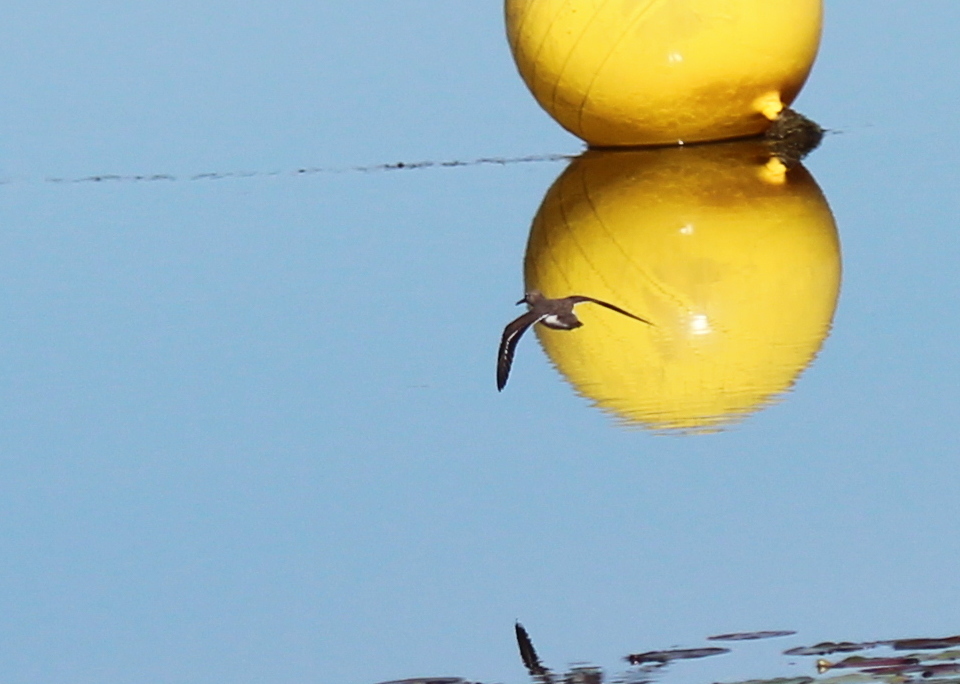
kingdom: Animalia
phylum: Chordata
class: Aves
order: Charadriiformes
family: Scolopacidae
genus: Actitis
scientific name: Actitis macularius
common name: Spotted sandpiper
